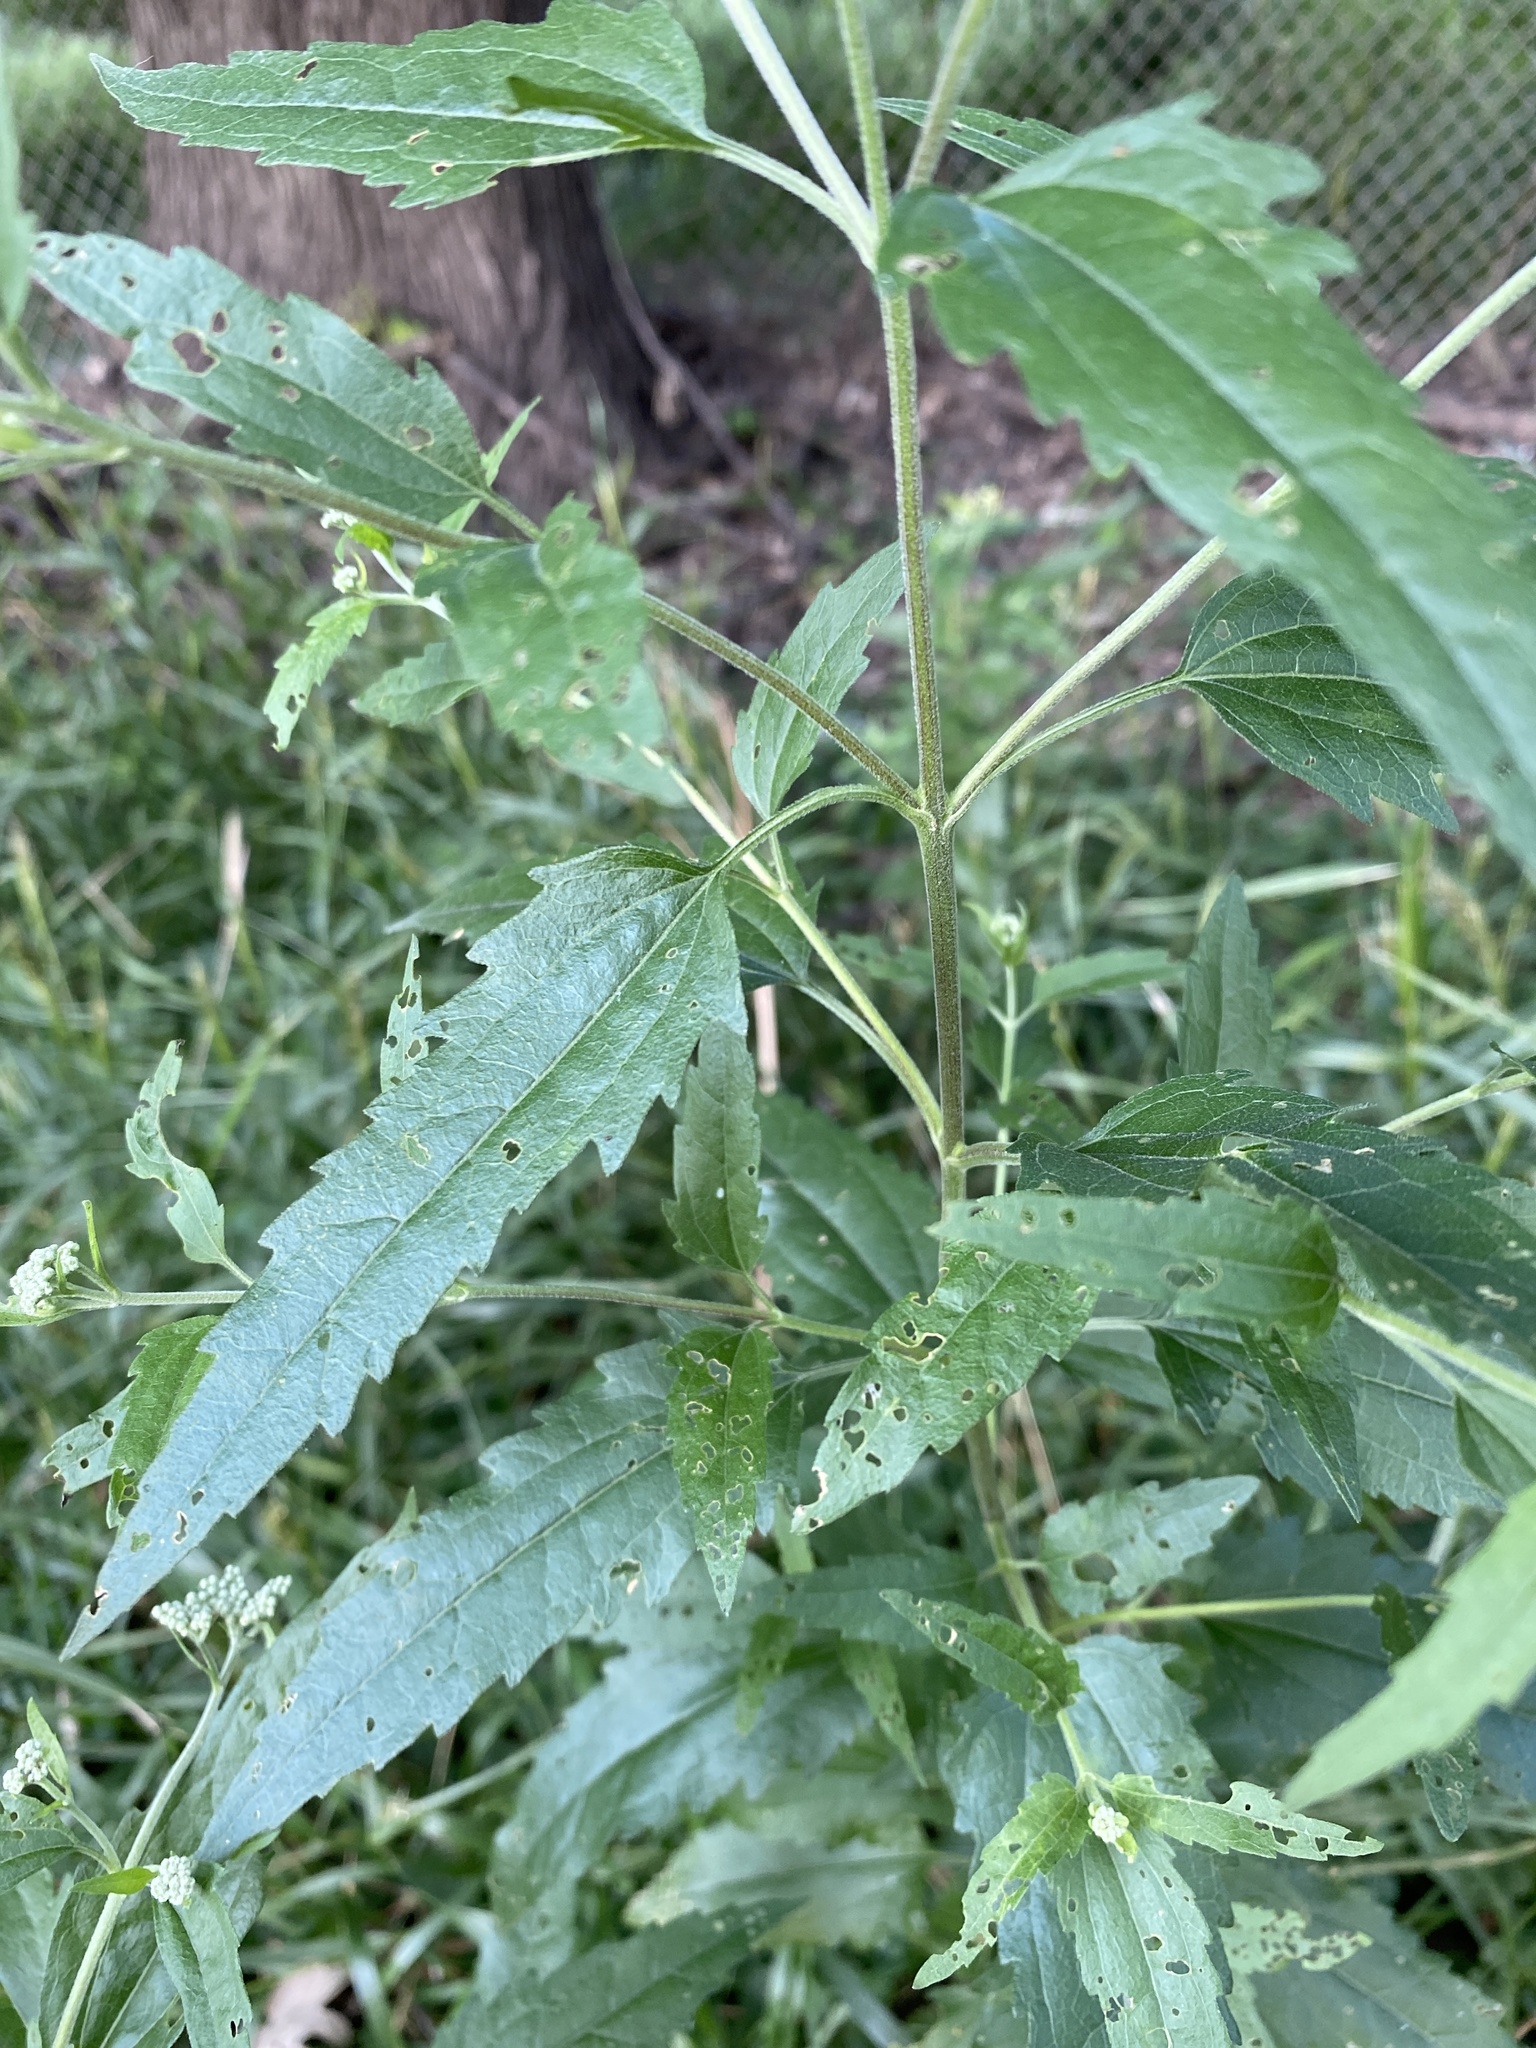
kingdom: Plantae
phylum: Tracheophyta
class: Magnoliopsida
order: Asterales
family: Asteraceae
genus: Eupatorium
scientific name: Eupatorium serotinum
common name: Late boneset
